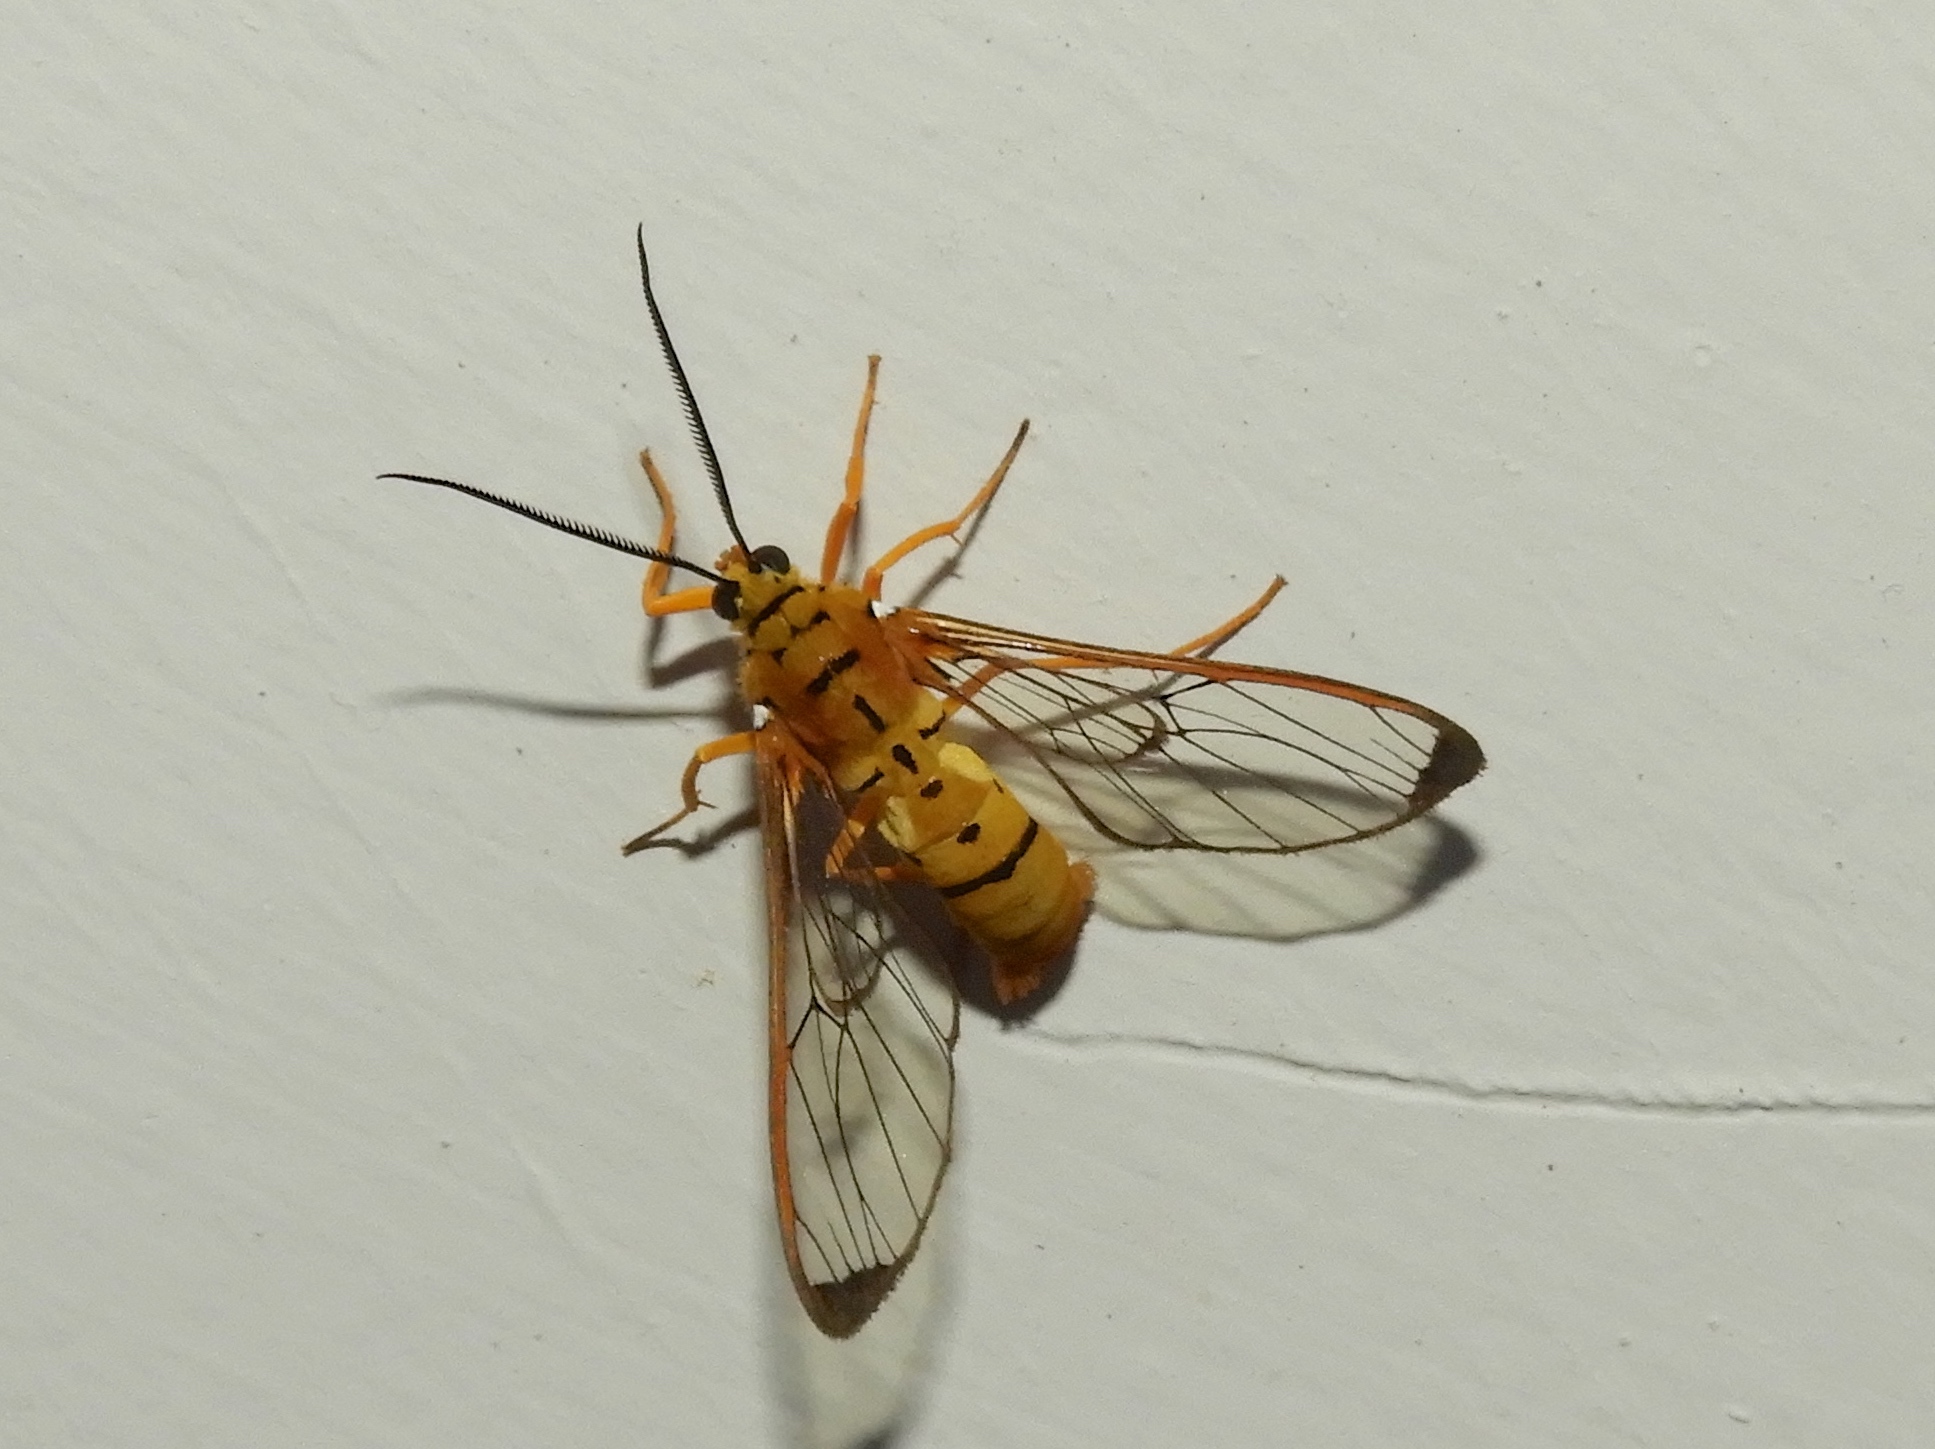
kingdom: Animalia
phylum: Arthropoda
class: Insecta
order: Lepidoptera
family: Erebidae
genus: Isanthrene
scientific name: Isanthrene felderi
